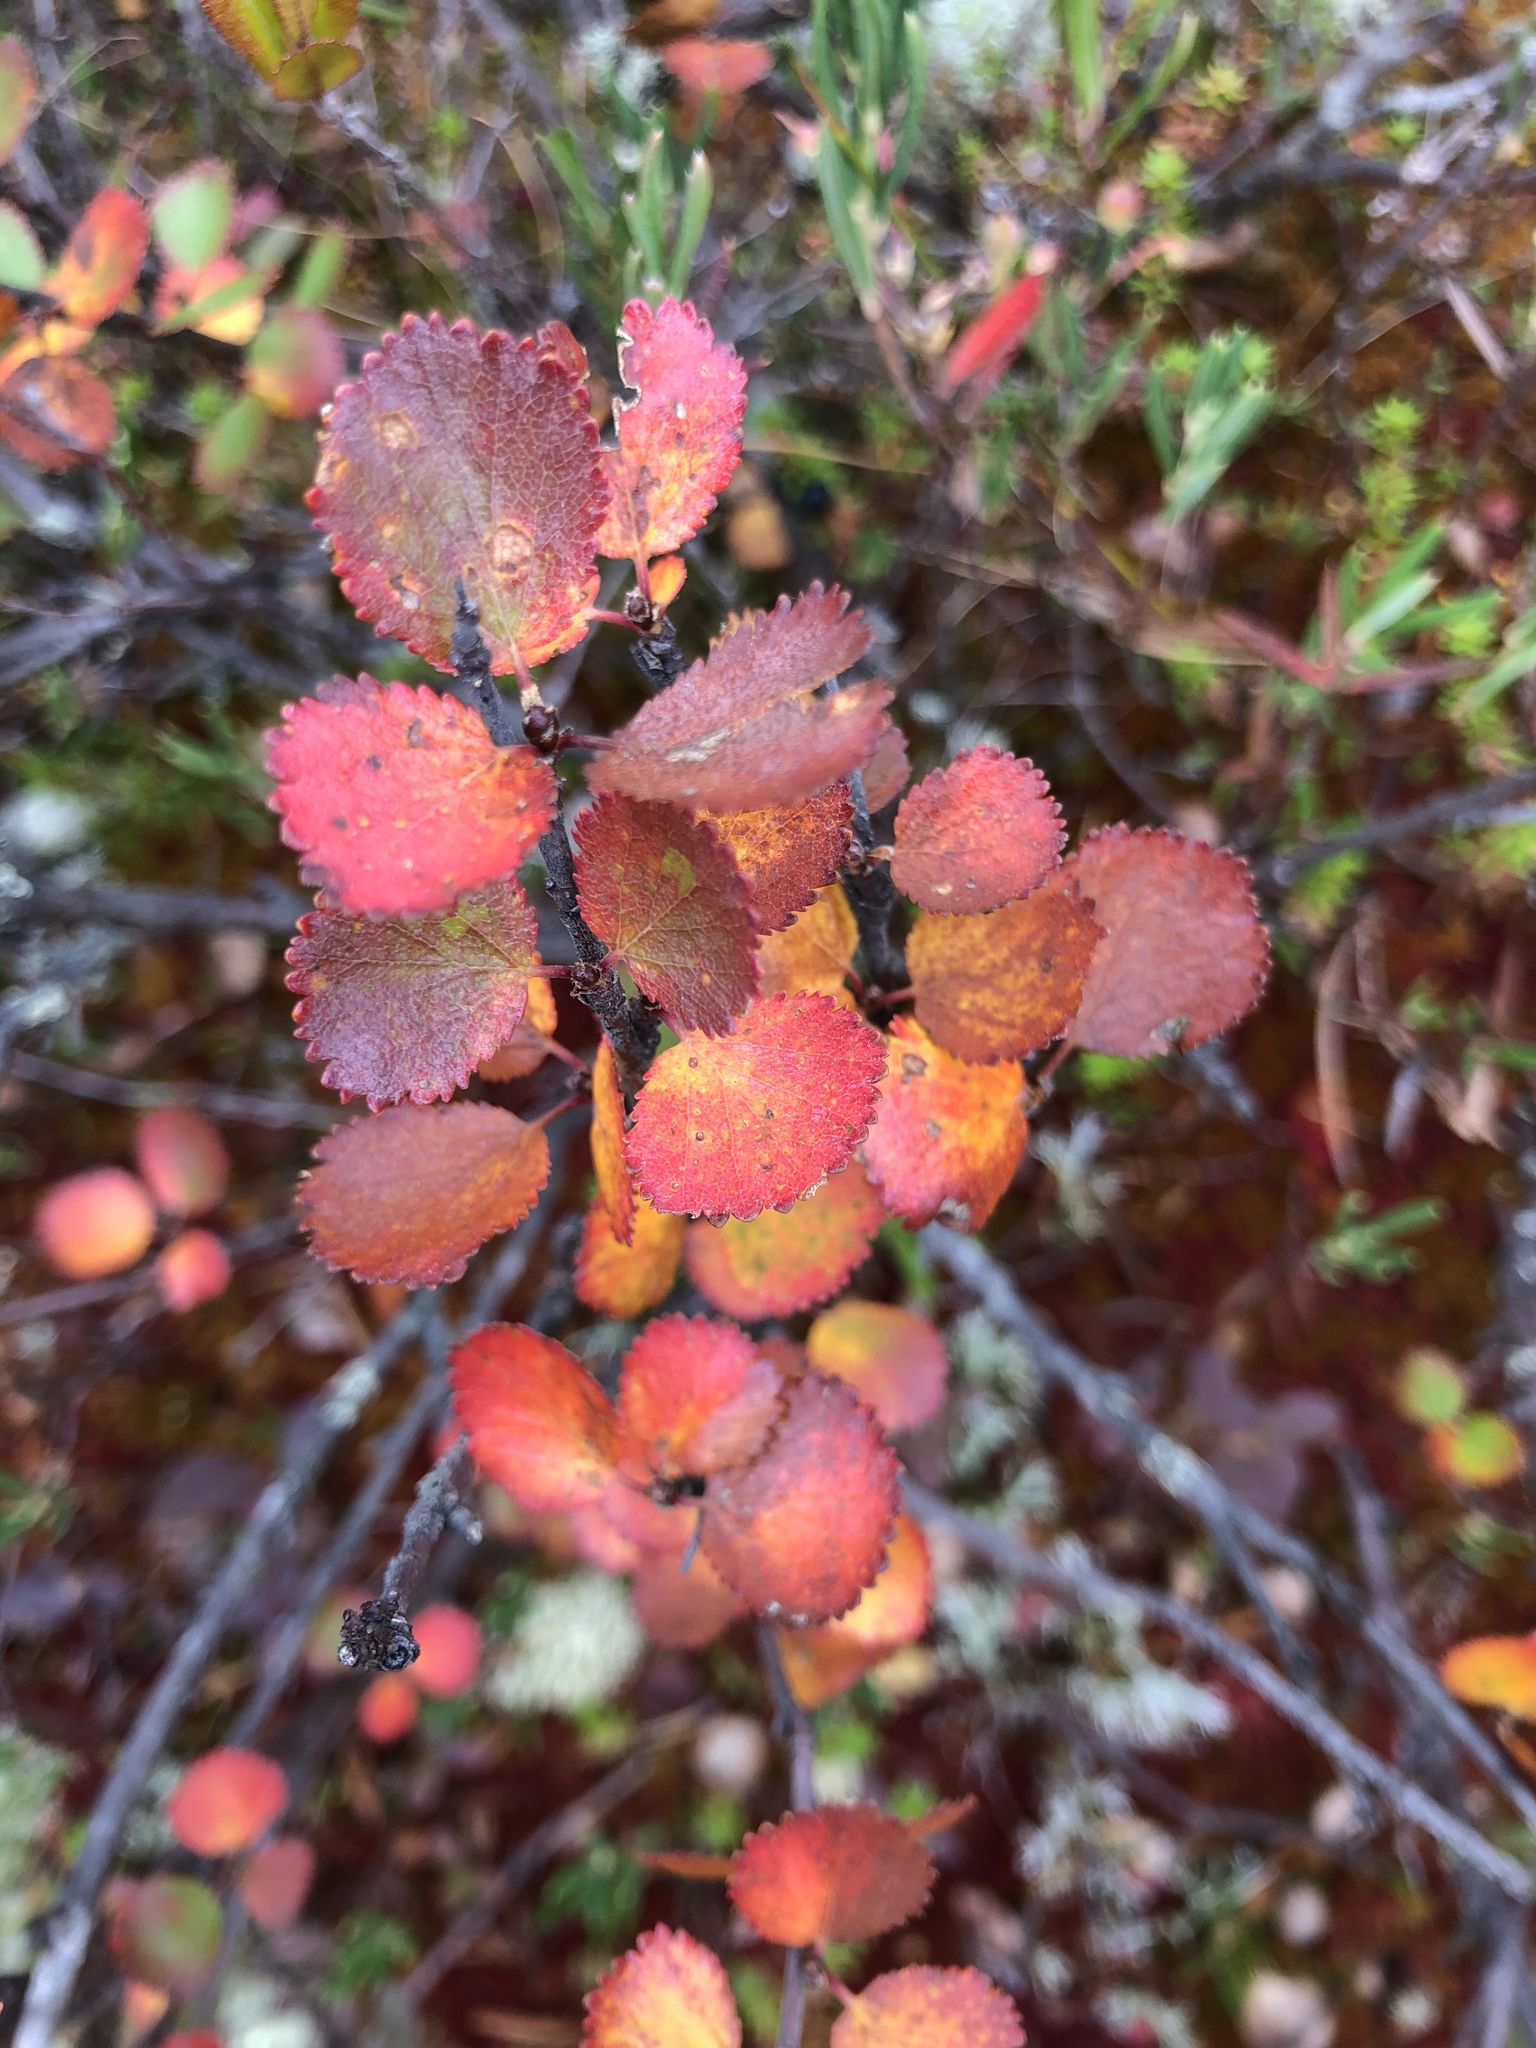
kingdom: Plantae
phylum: Tracheophyta
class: Magnoliopsida
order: Fagales
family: Betulaceae
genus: Betula
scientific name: Betula nana
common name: Arctic dwarf birch
